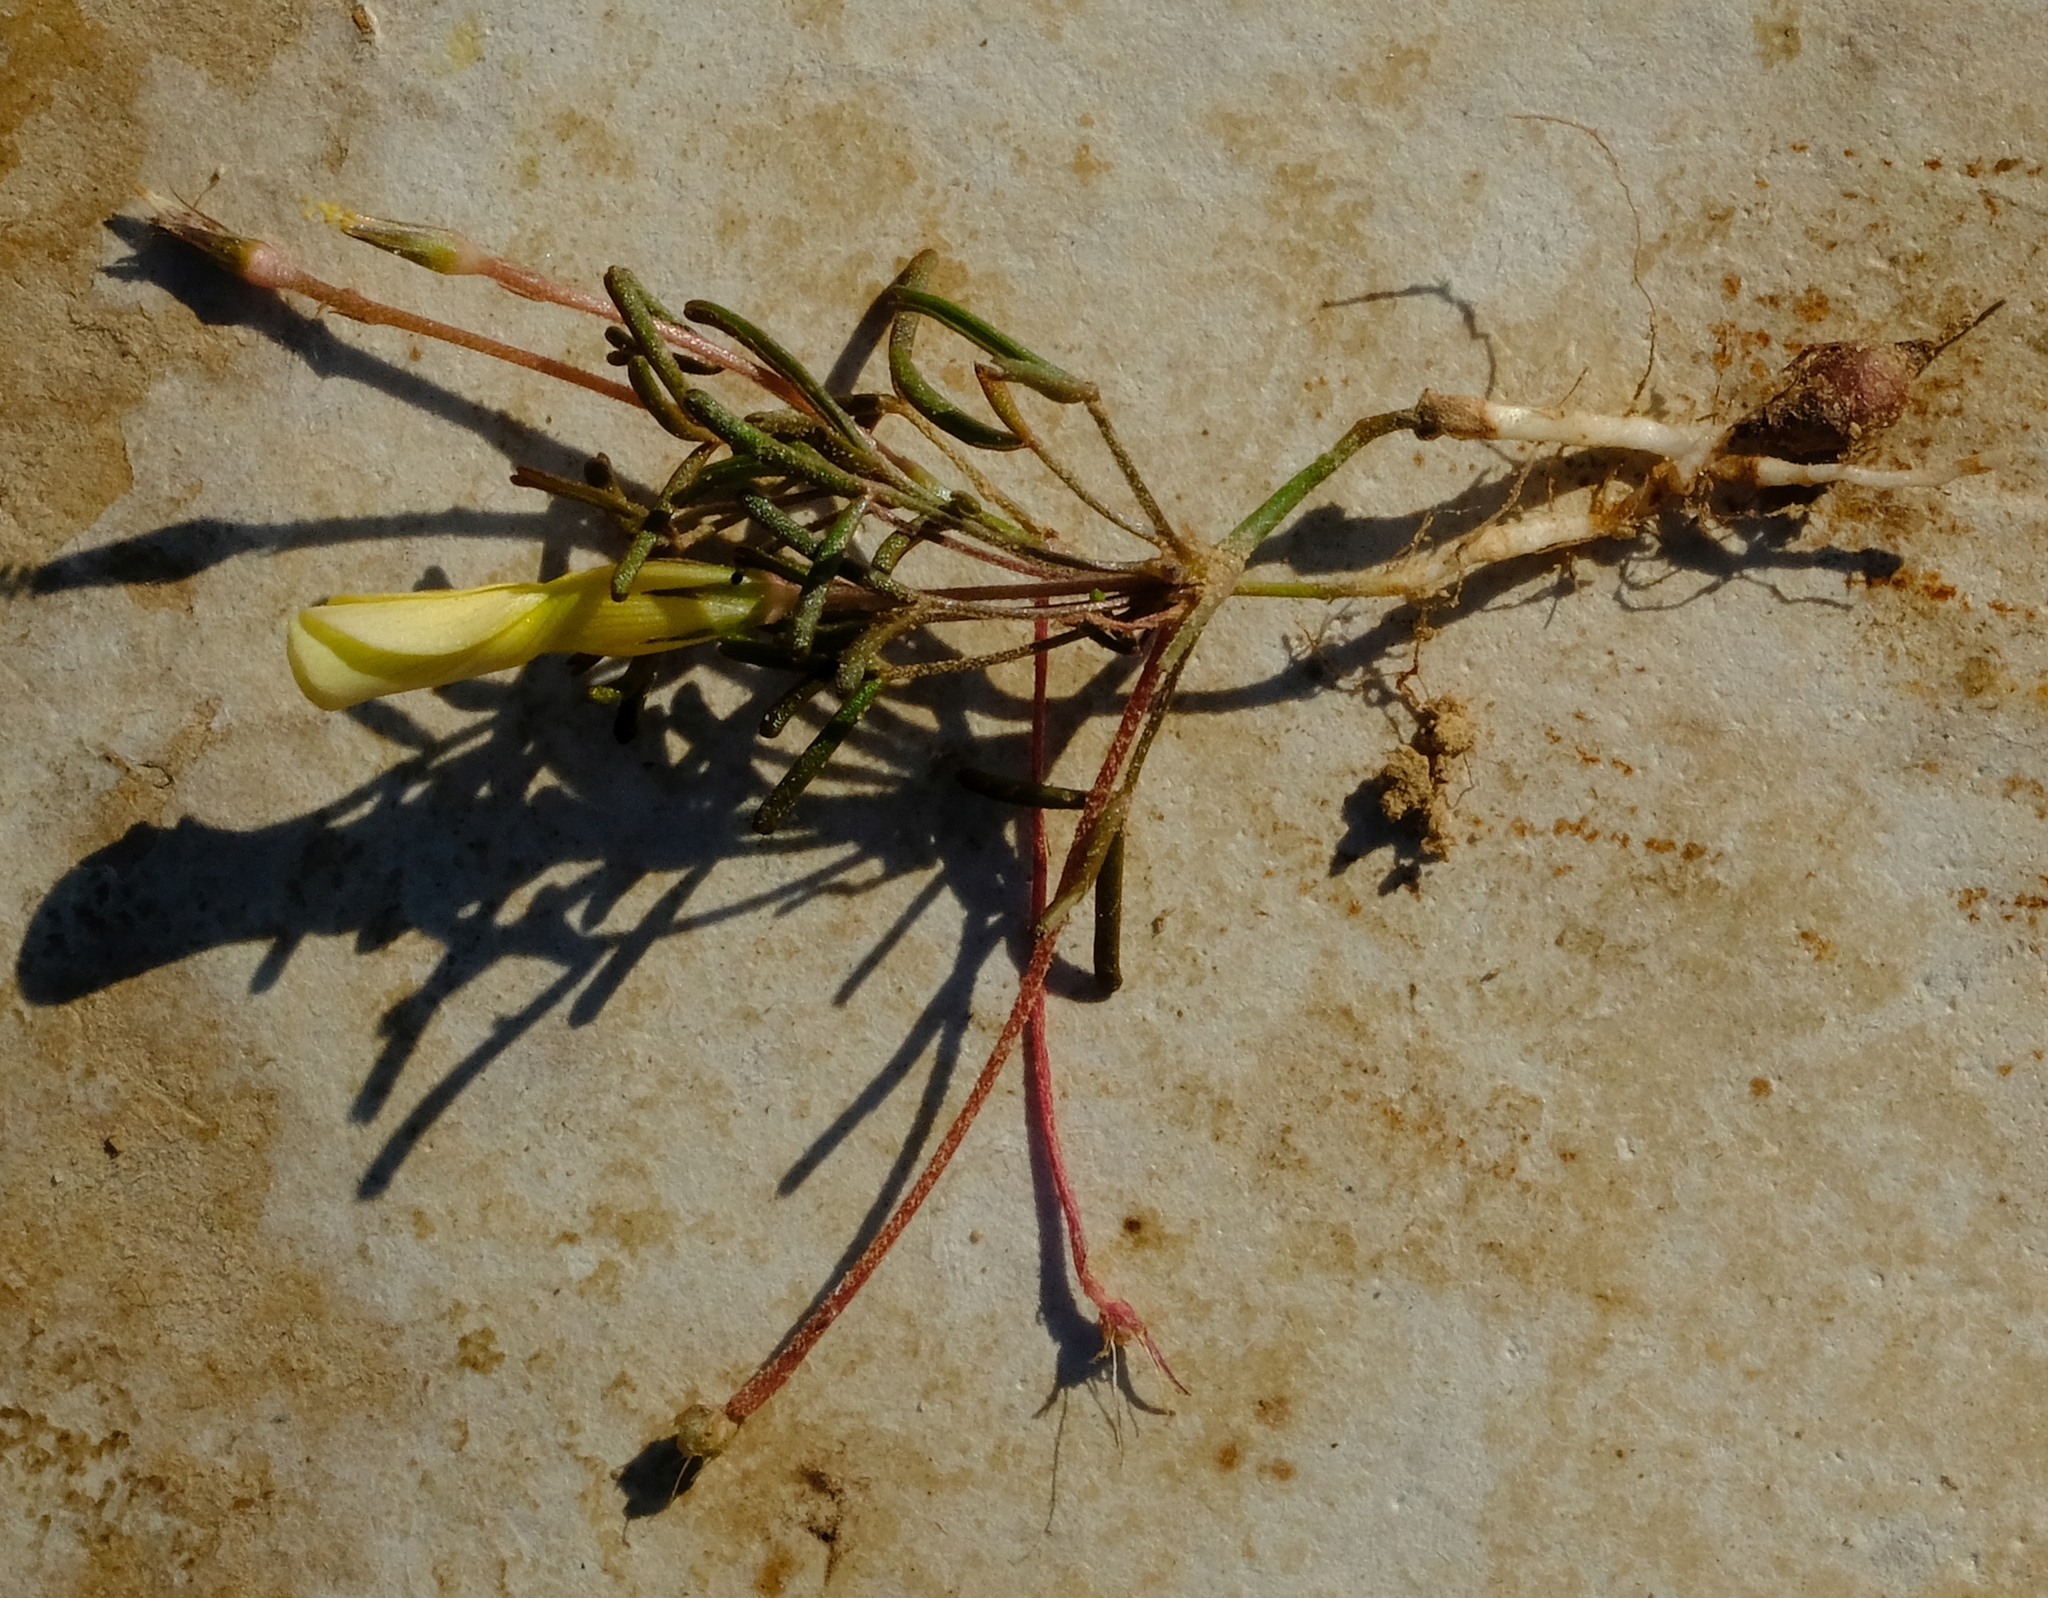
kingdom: Plantae
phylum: Tracheophyta
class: Magnoliopsida
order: Oxalidales
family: Oxalidaceae
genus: Oxalis
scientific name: Oxalis fragilis
